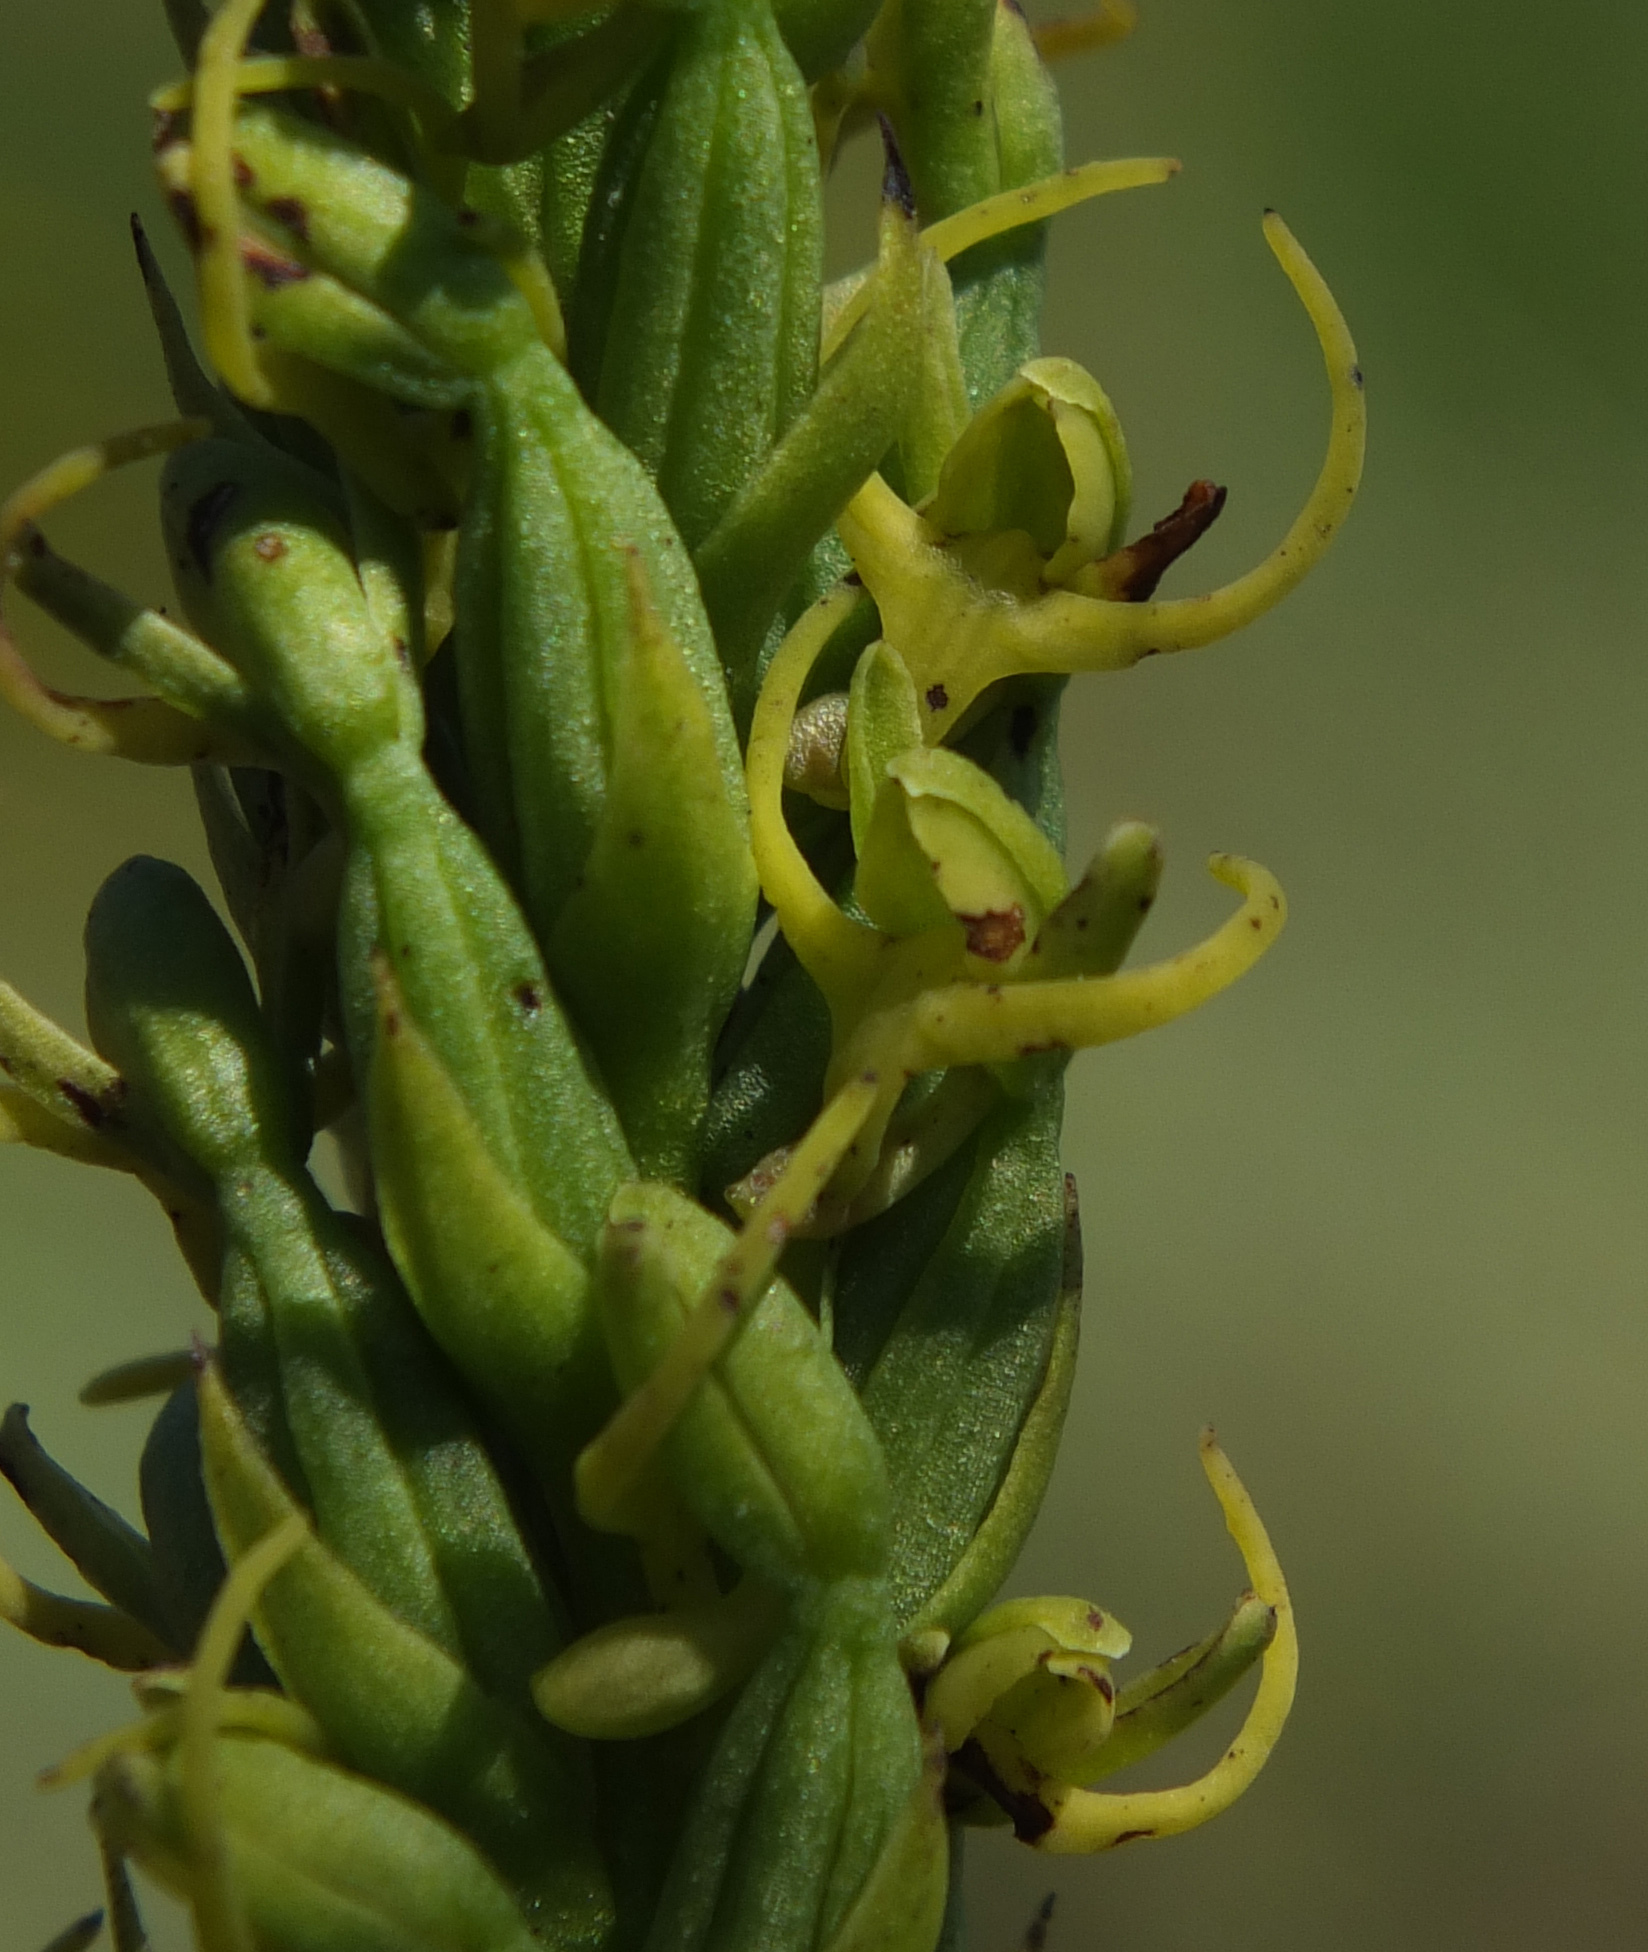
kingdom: Plantae
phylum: Tracheophyta
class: Liliopsida
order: Asparagales
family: Orchidaceae
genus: Peristylus
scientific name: Peristylus richardianus
